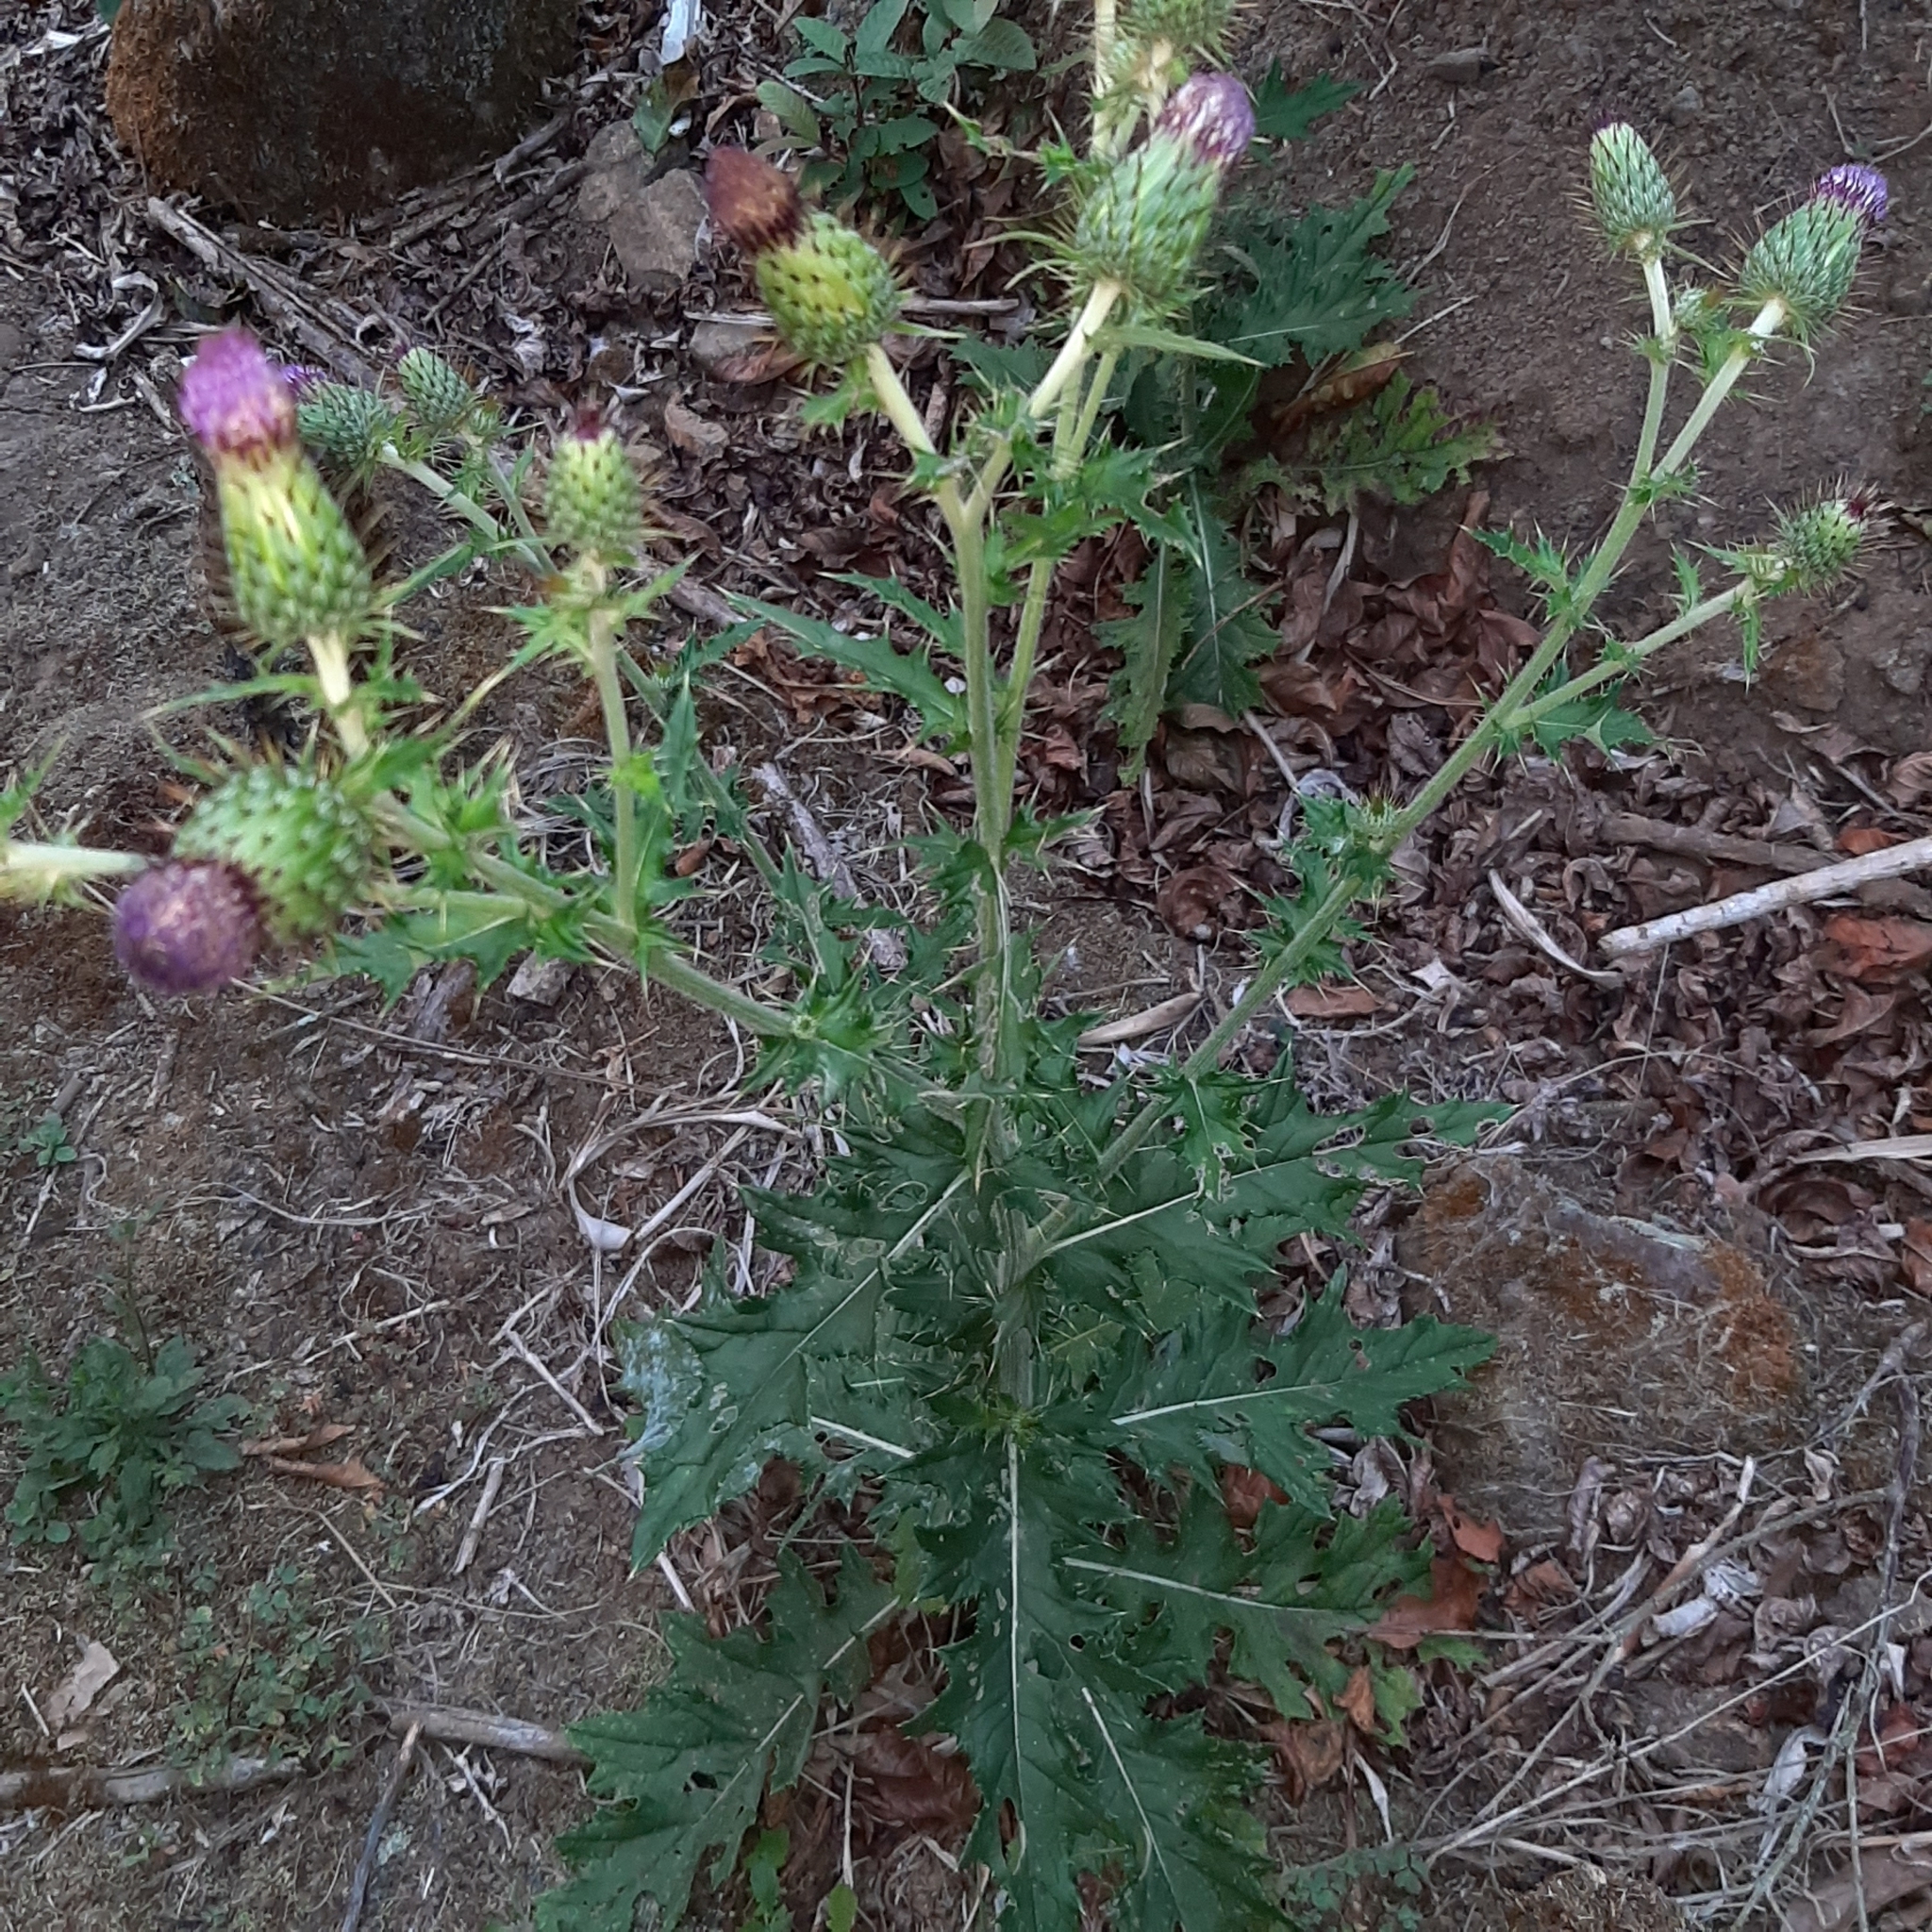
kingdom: Plantae
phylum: Tracheophyta
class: Magnoliopsida
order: Asterales
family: Asteraceae
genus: Cirsium
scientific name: Cirsium mexicanum
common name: Mexican thistle
